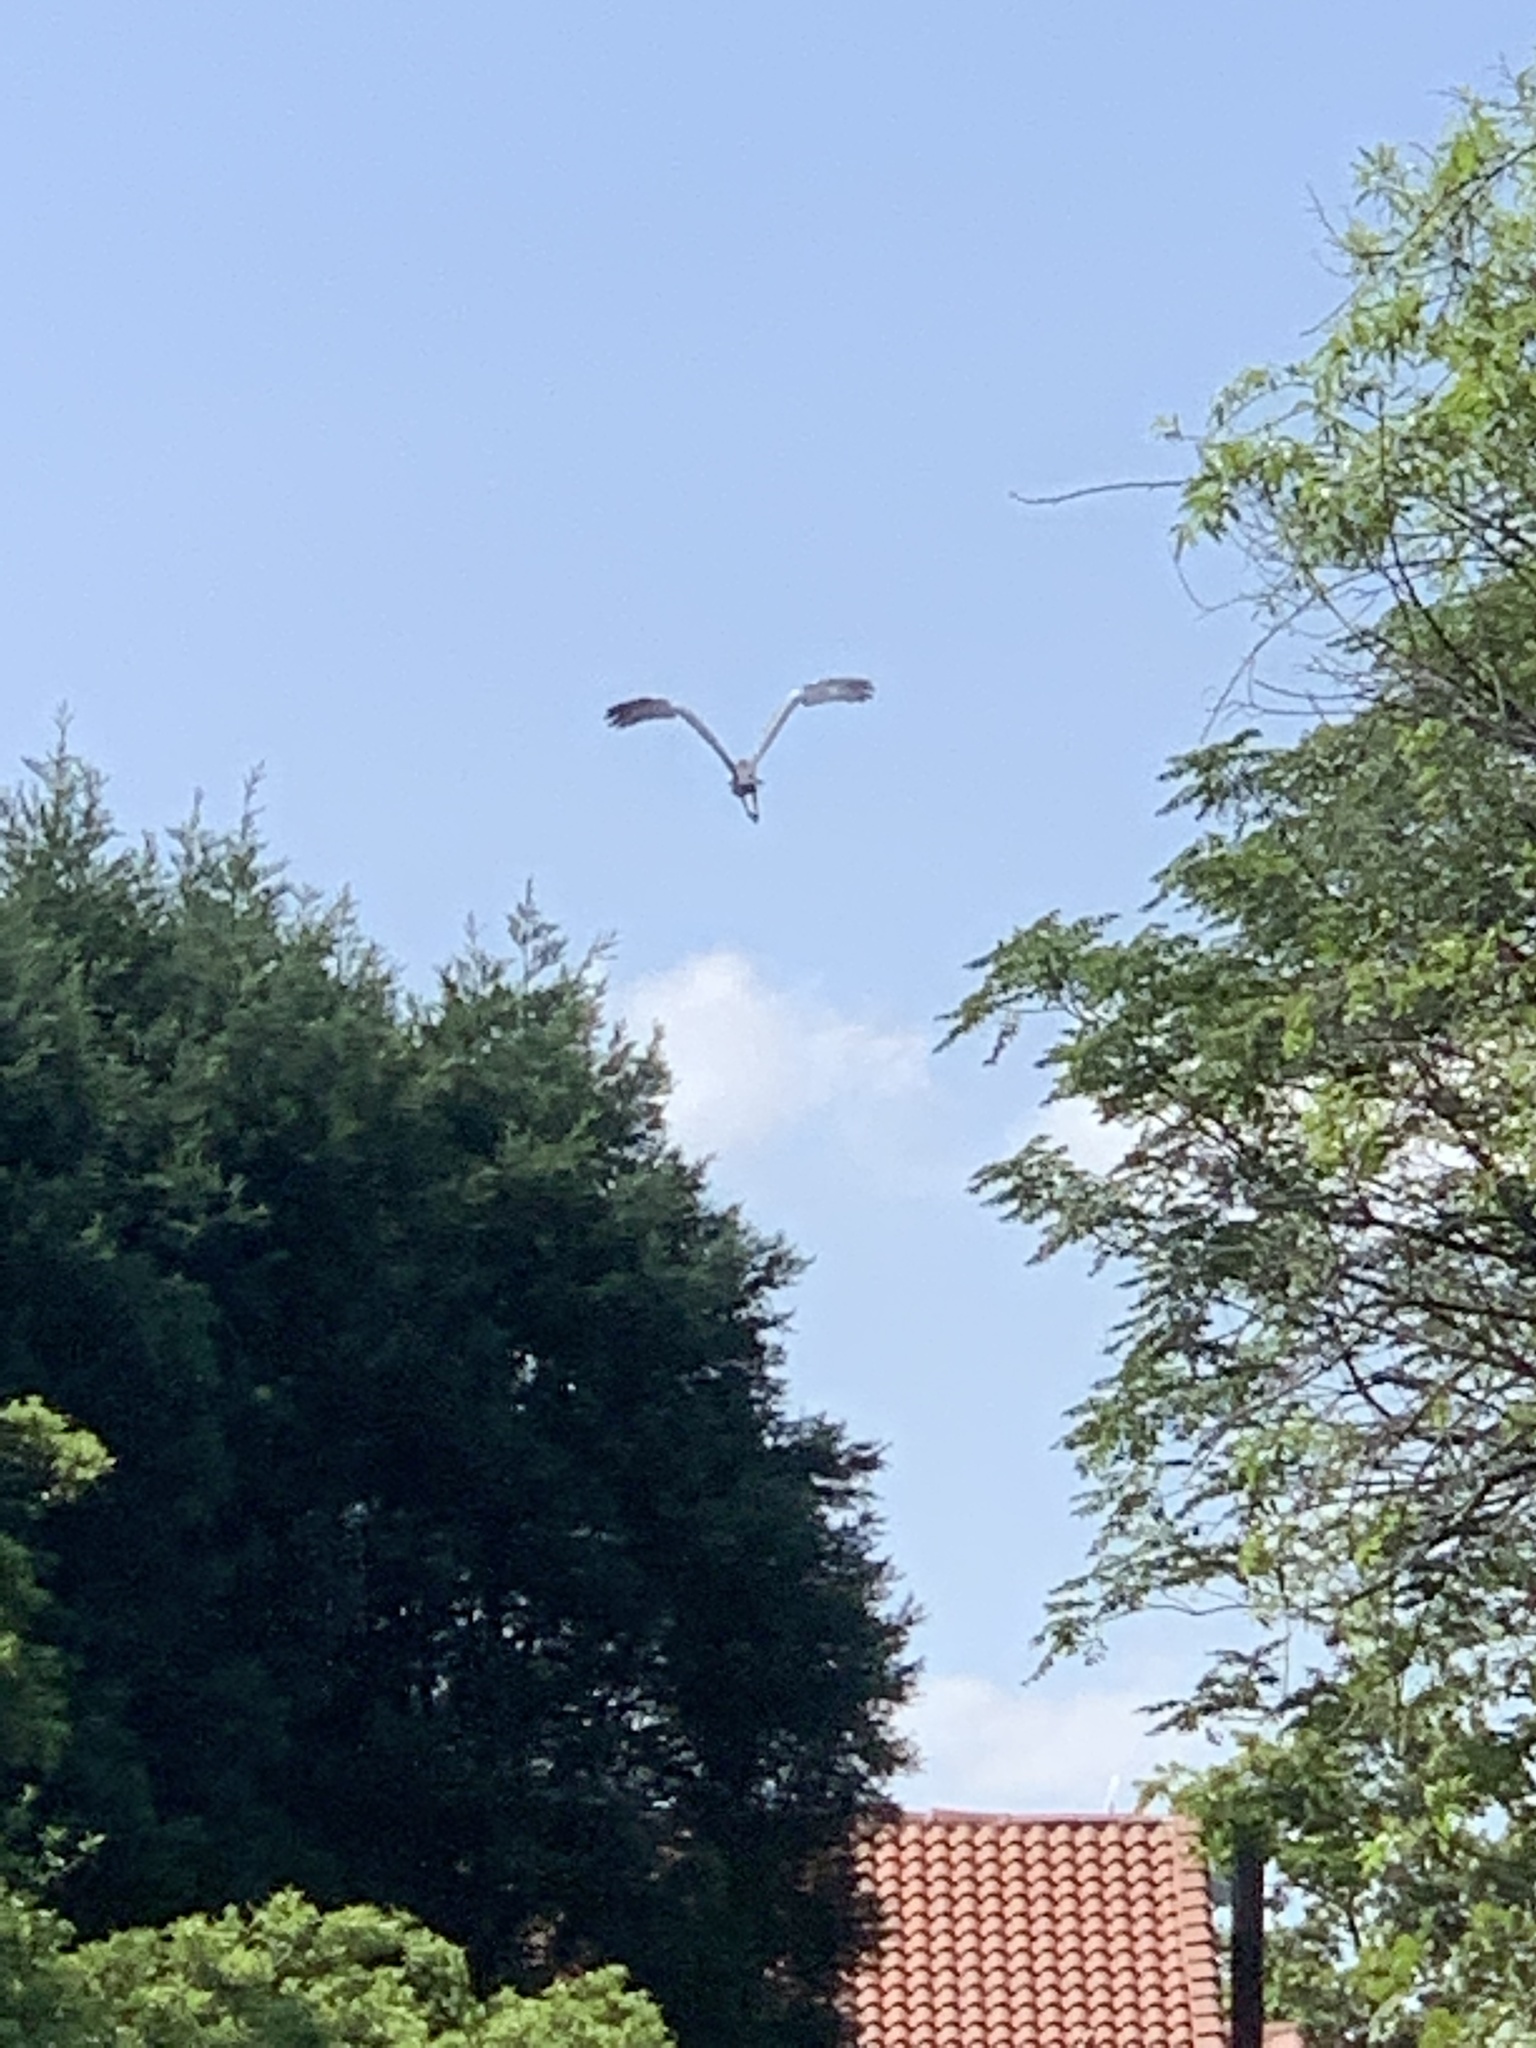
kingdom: Animalia
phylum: Chordata
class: Aves
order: Pelecaniformes
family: Ardeidae
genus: Ardea
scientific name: Ardea melanocephala
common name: Black-headed heron
